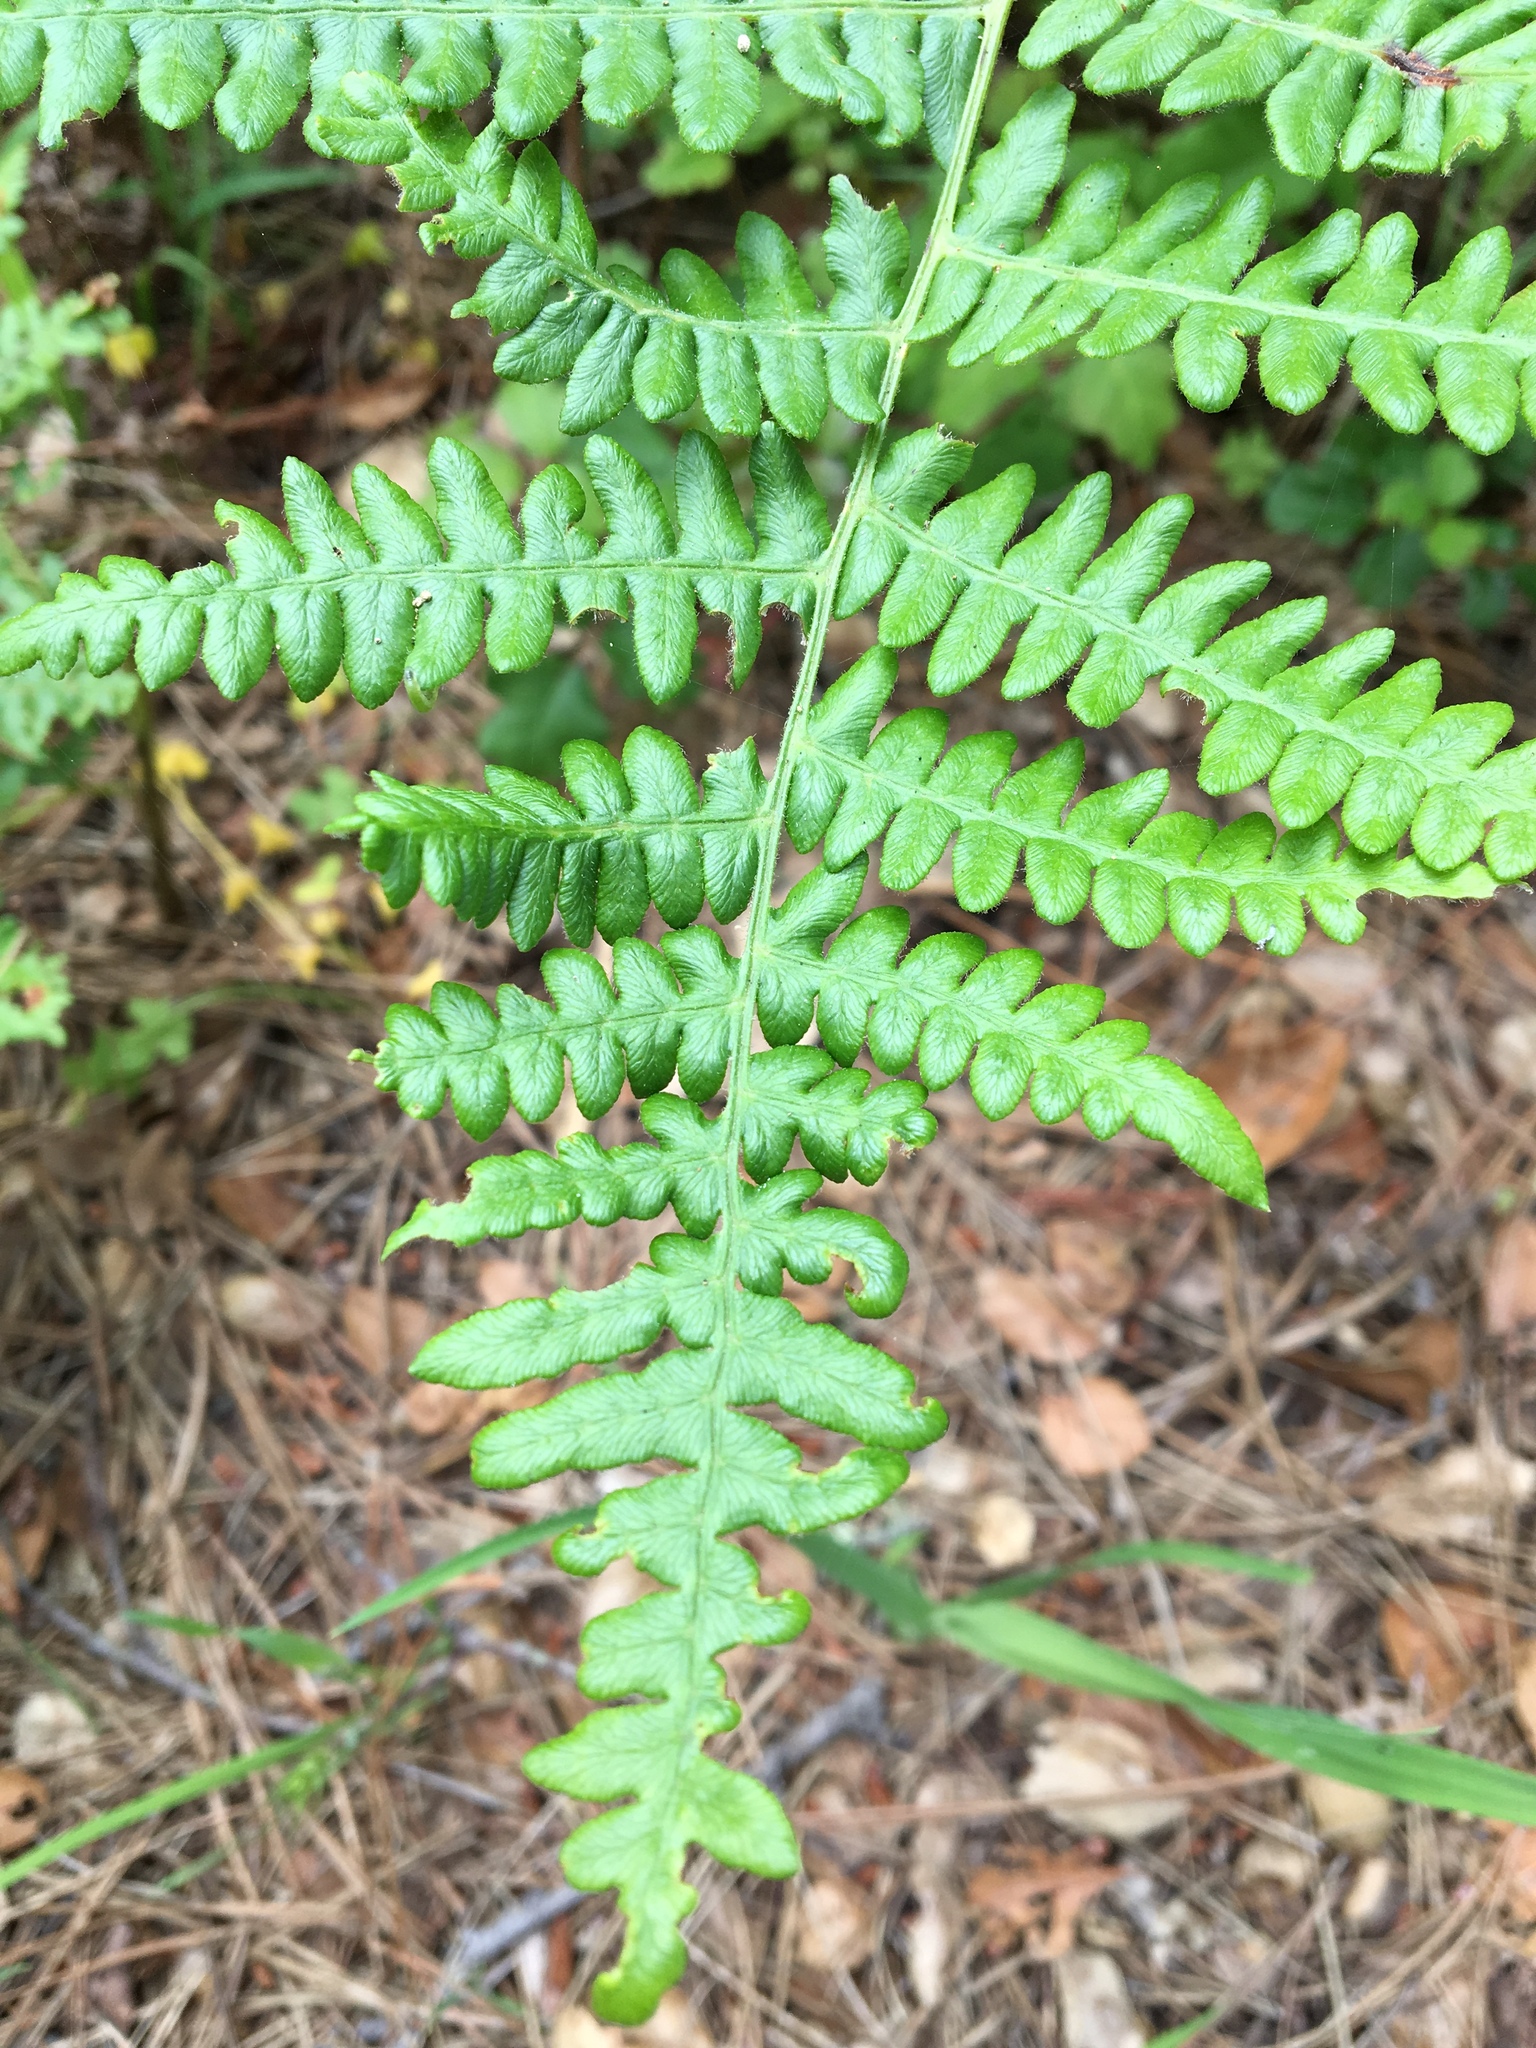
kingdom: Plantae
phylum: Tracheophyta
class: Polypodiopsida
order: Polypodiales
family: Dennstaedtiaceae
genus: Pteridium
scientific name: Pteridium aquilinum
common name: Bracken
